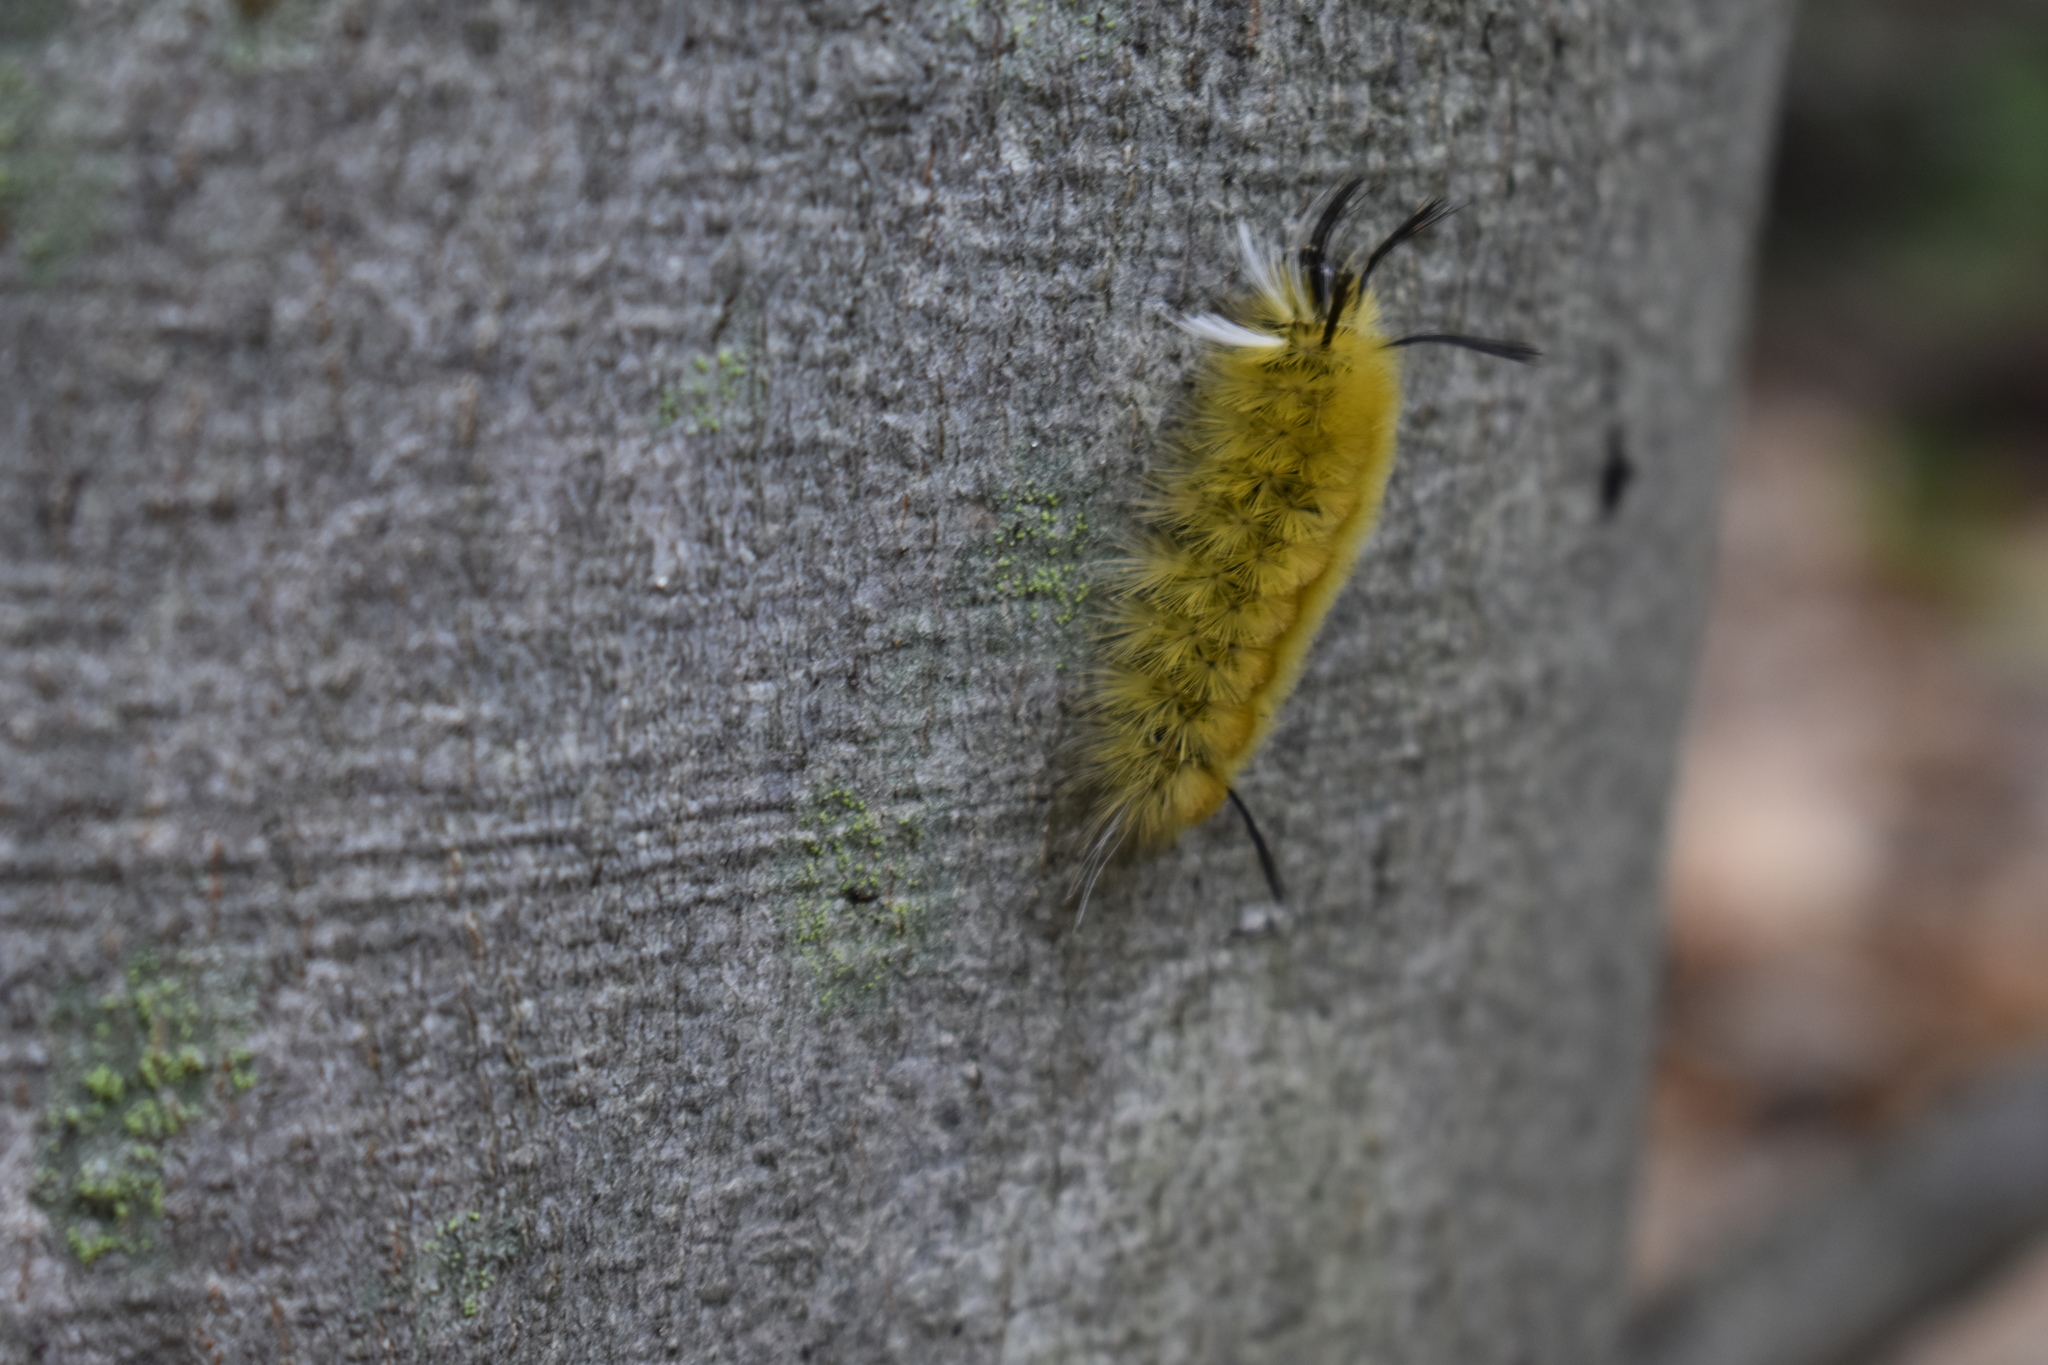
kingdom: Animalia
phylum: Arthropoda
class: Insecta
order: Lepidoptera
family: Erebidae
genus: Halysidota
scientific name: Halysidota tessellaris
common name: Banded tussock moth
